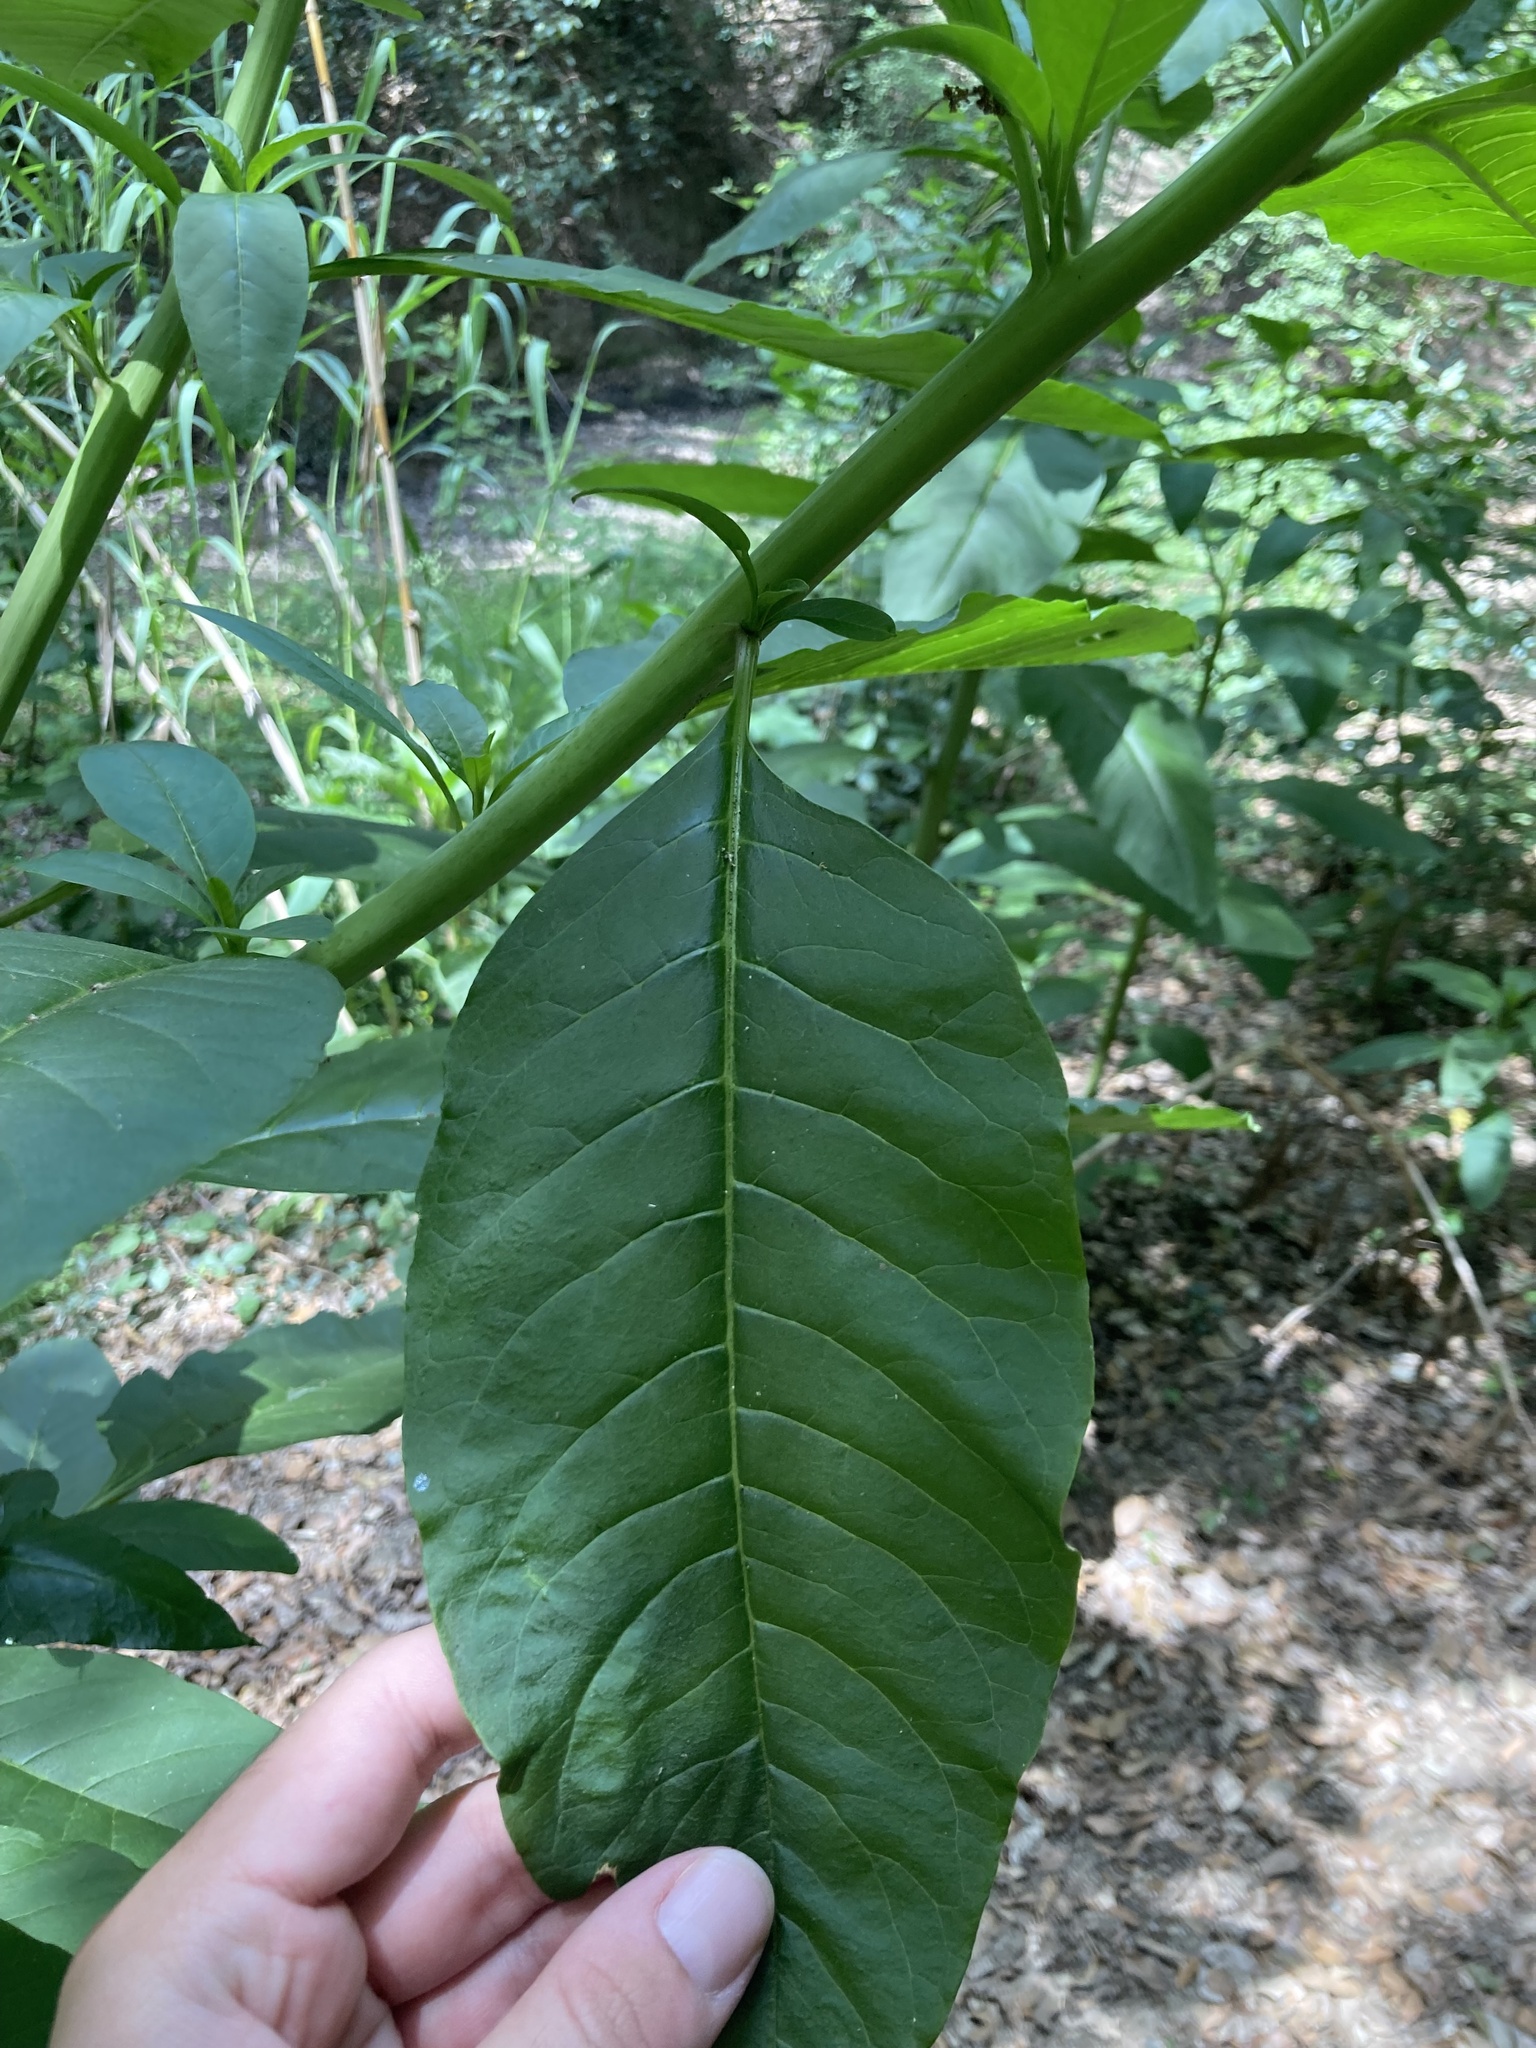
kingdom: Plantae
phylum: Tracheophyta
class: Magnoliopsida
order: Caryophyllales
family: Phytolaccaceae
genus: Phytolacca
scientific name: Phytolacca americana
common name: American pokeweed
